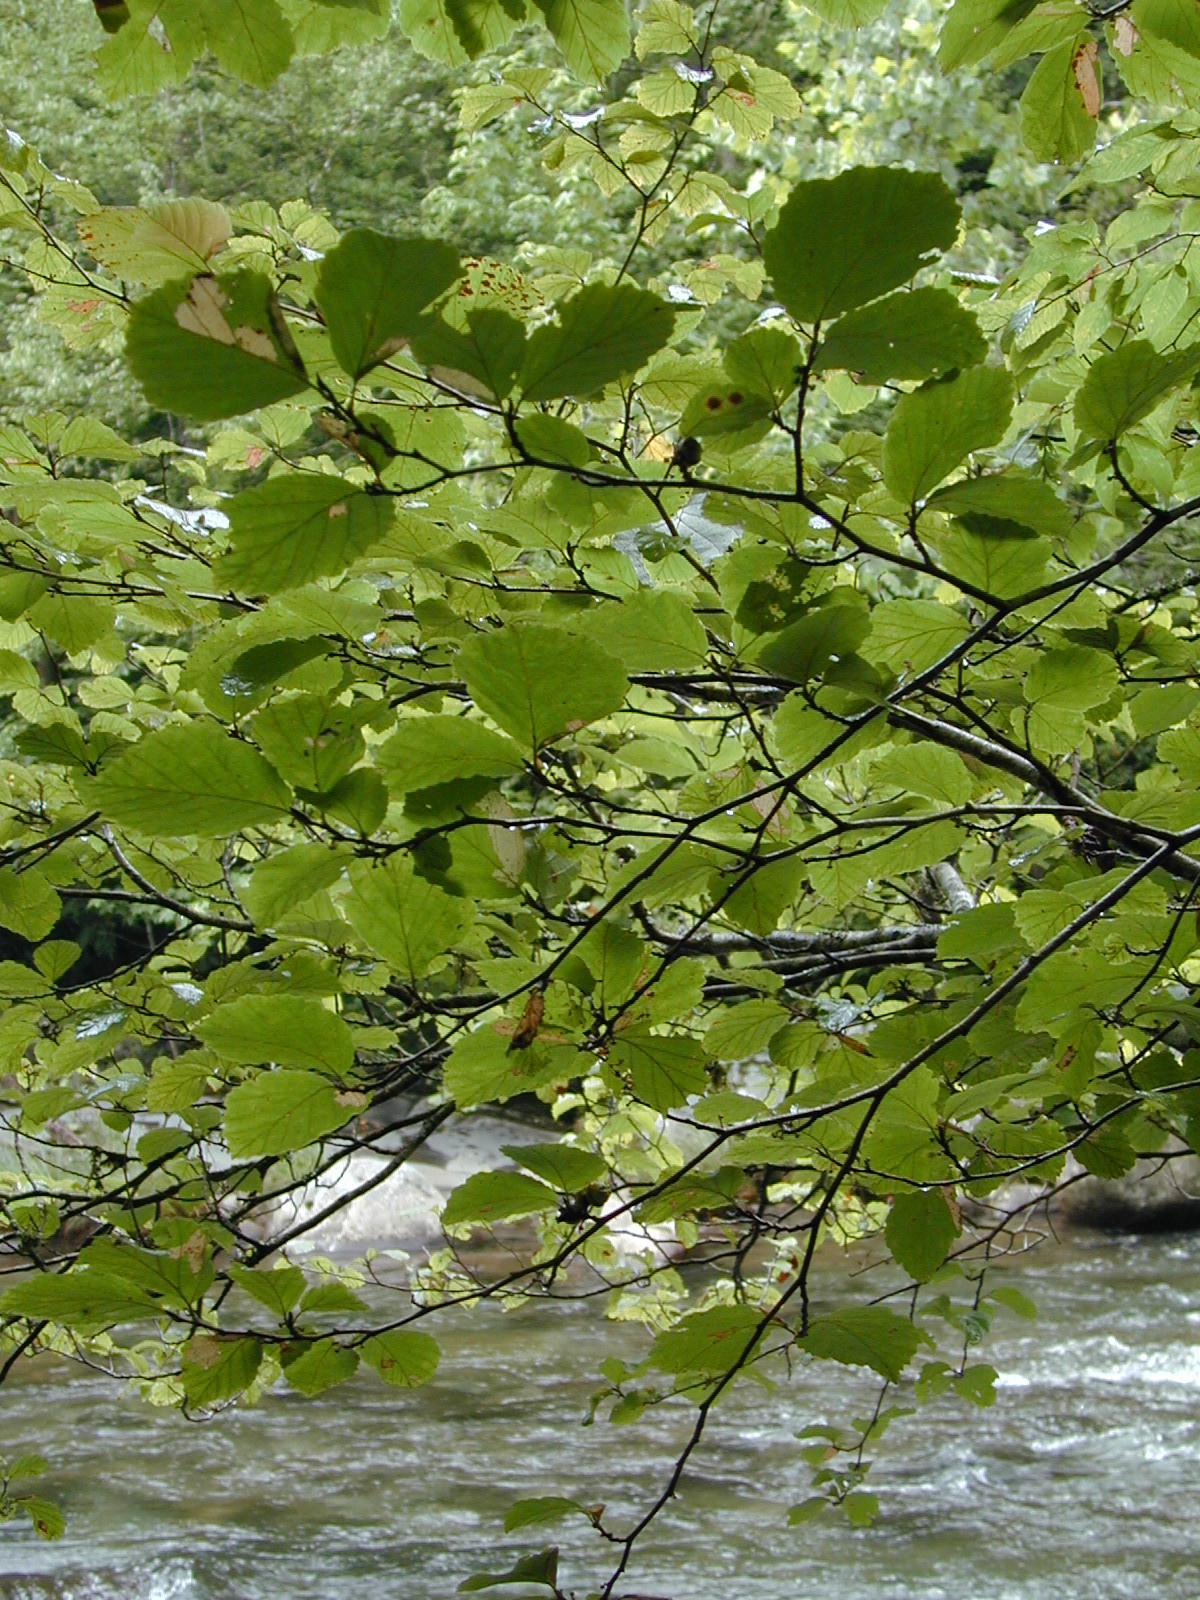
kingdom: Plantae
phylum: Tracheophyta
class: Magnoliopsida
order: Saxifragales
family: Hamamelidaceae
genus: Hamamelis
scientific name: Hamamelis virginiana
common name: Witch-hazel
